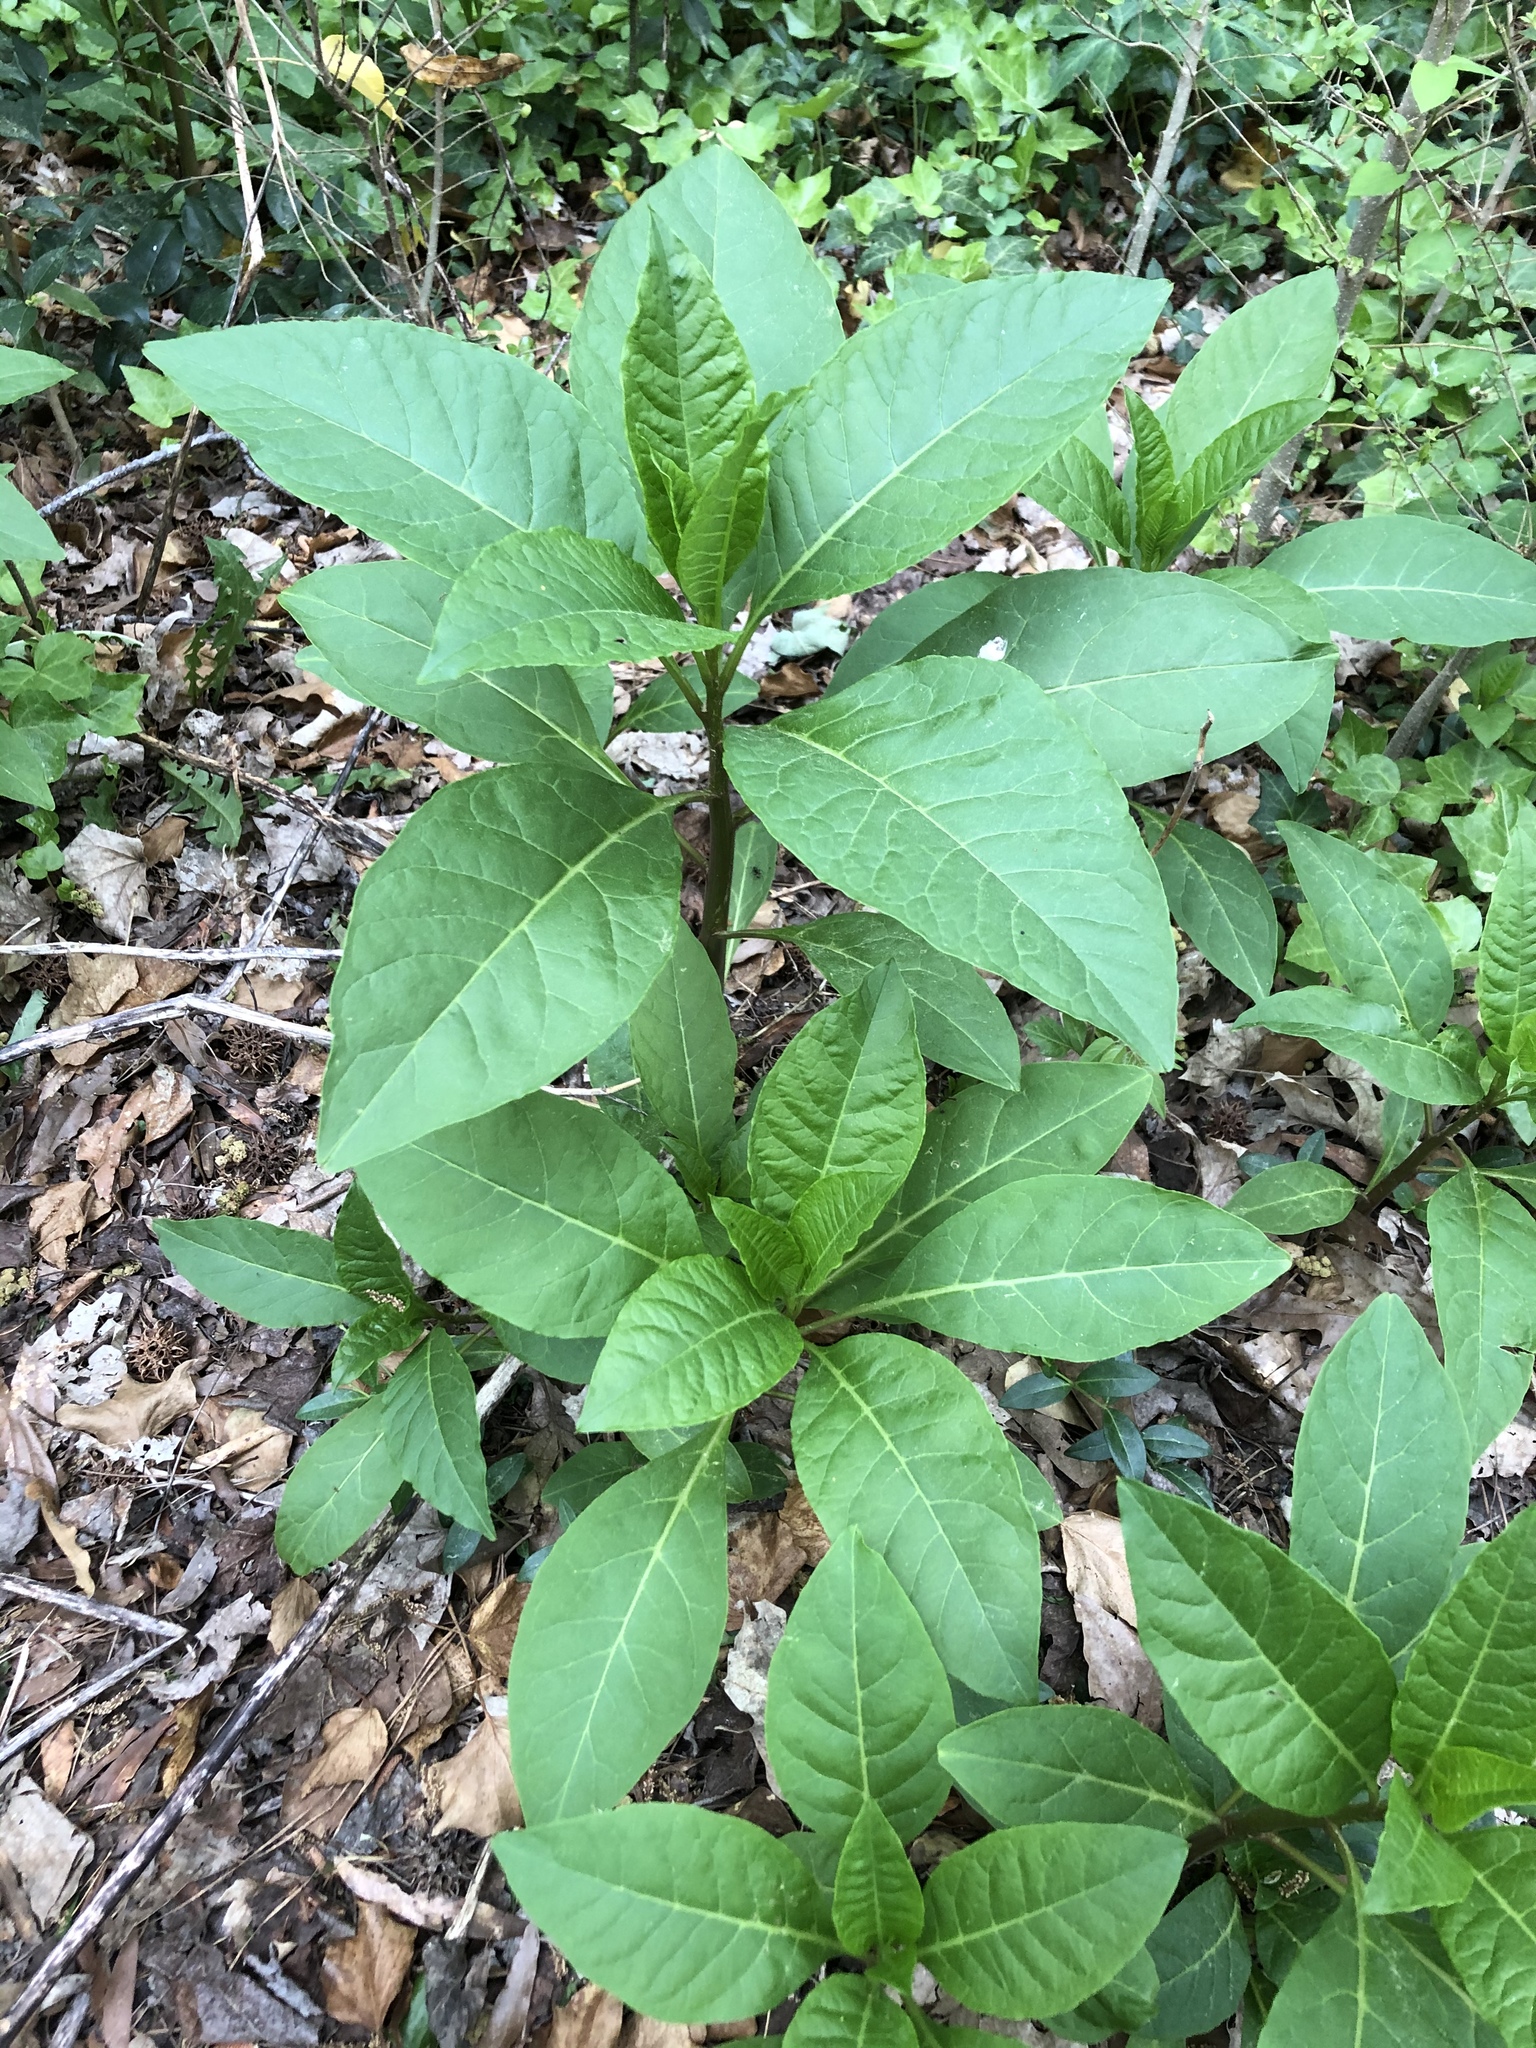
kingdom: Plantae
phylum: Tracheophyta
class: Magnoliopsida
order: Caryophyllales
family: Phytolaccaceae
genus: Phytolacca
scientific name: Phytolacca americana
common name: American pokeweed
